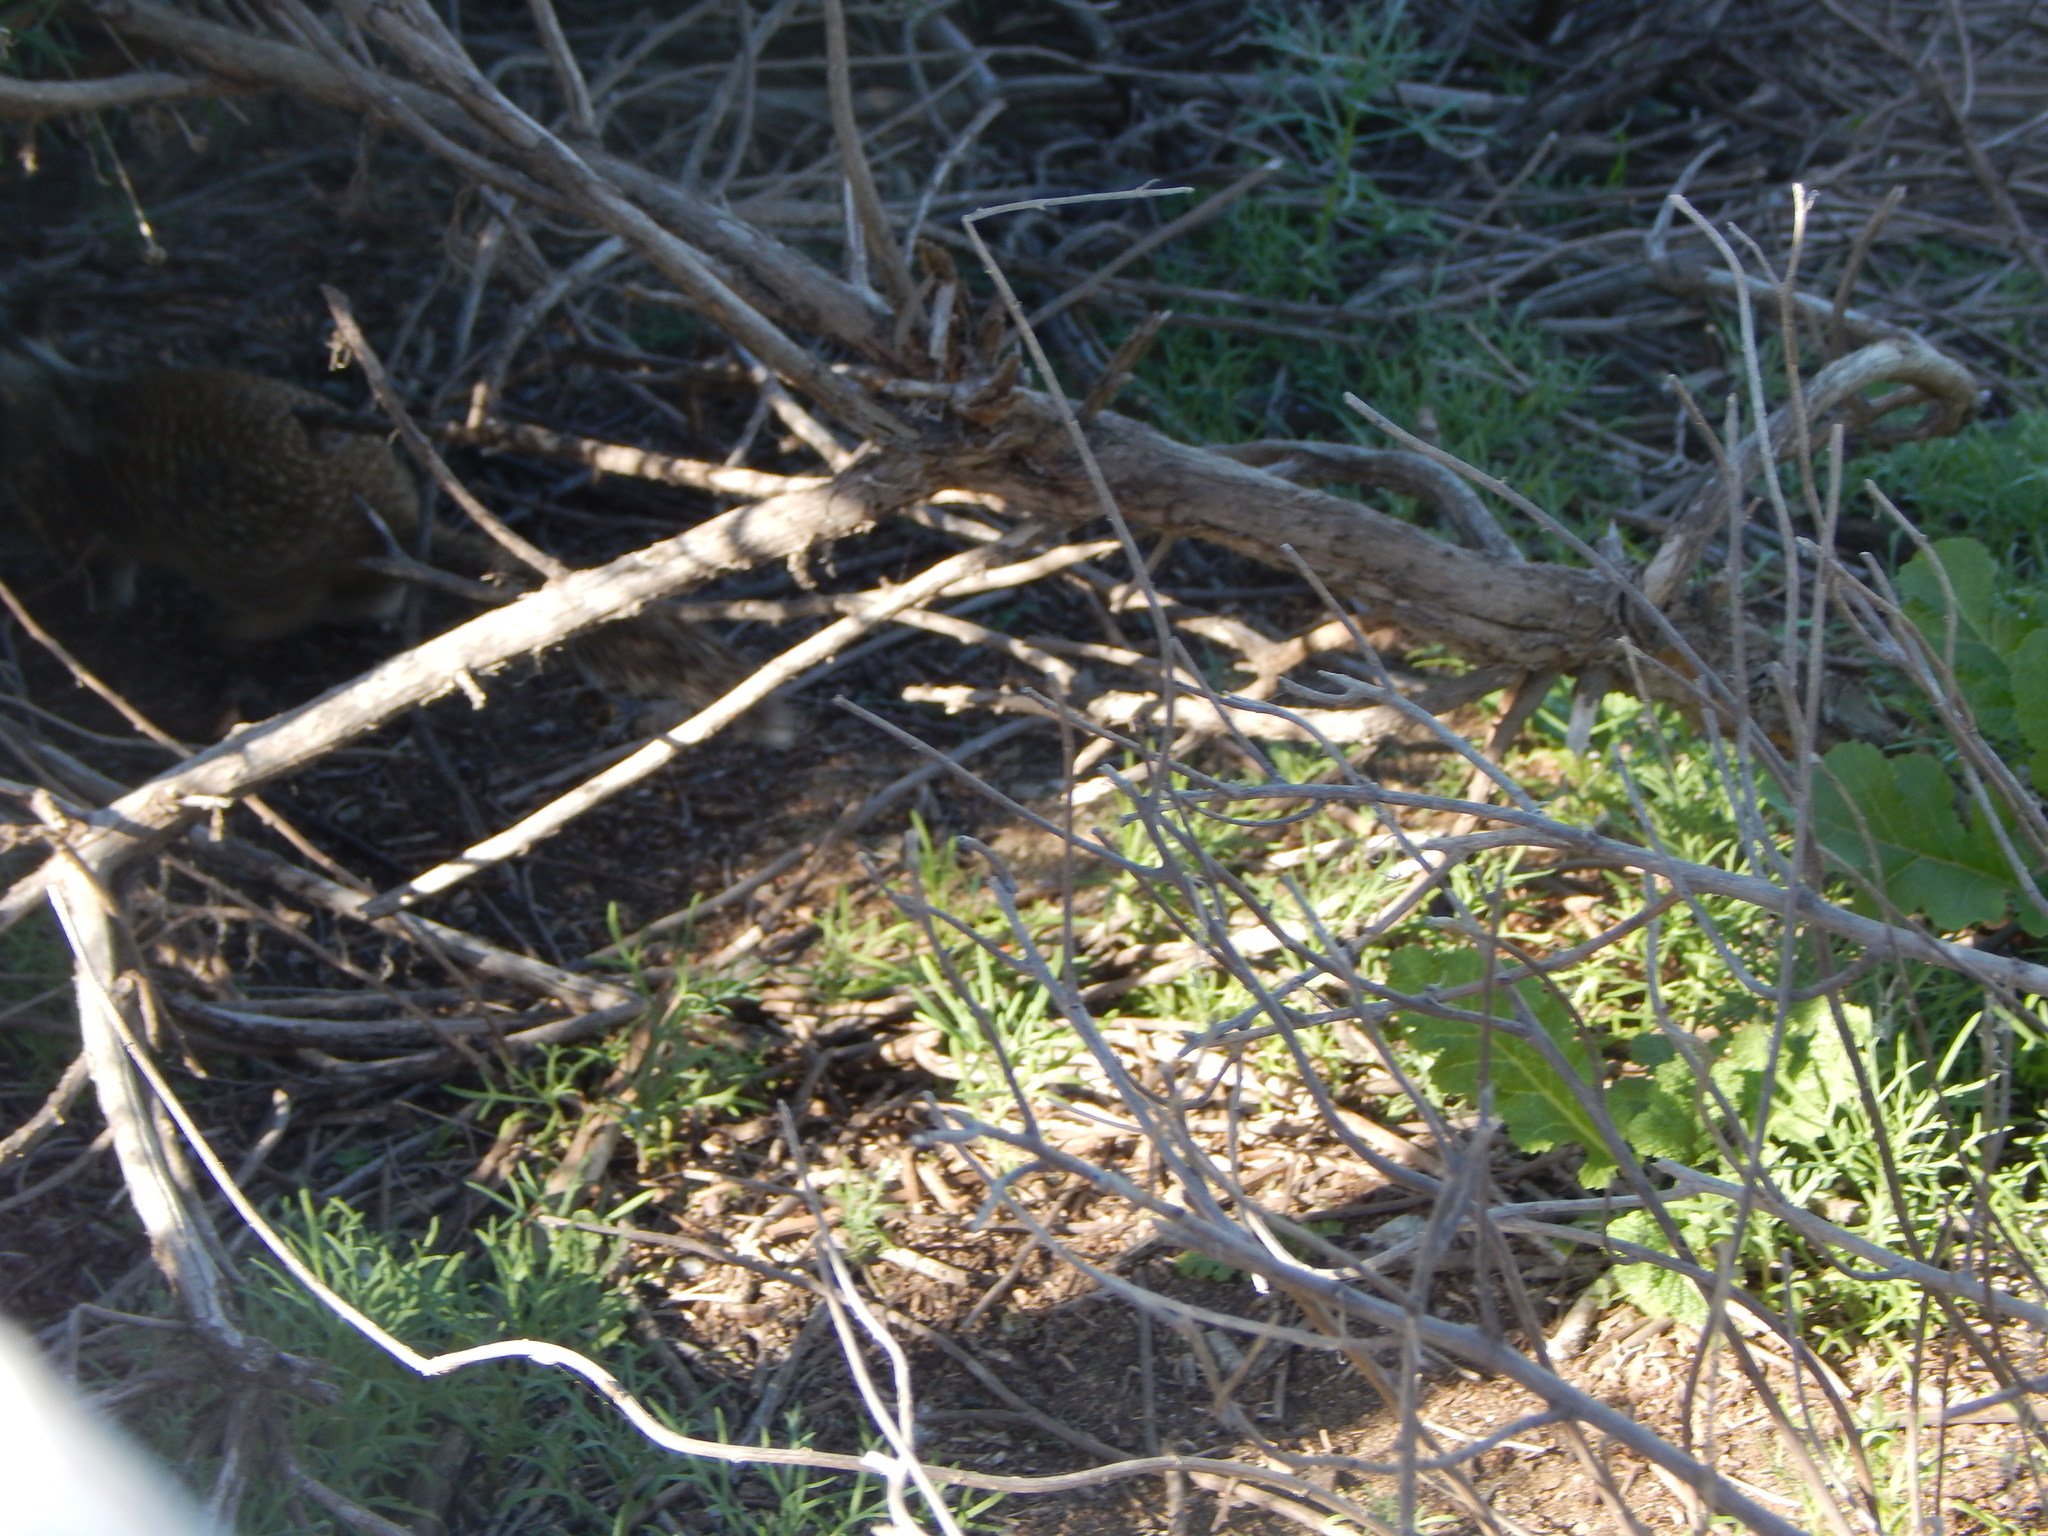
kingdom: Animalia
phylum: Chordata
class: Mammalia
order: Rodentia
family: Sciuridae
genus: Otospermophilus
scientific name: Otospermophilus beecheyi
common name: California ground squirrel
